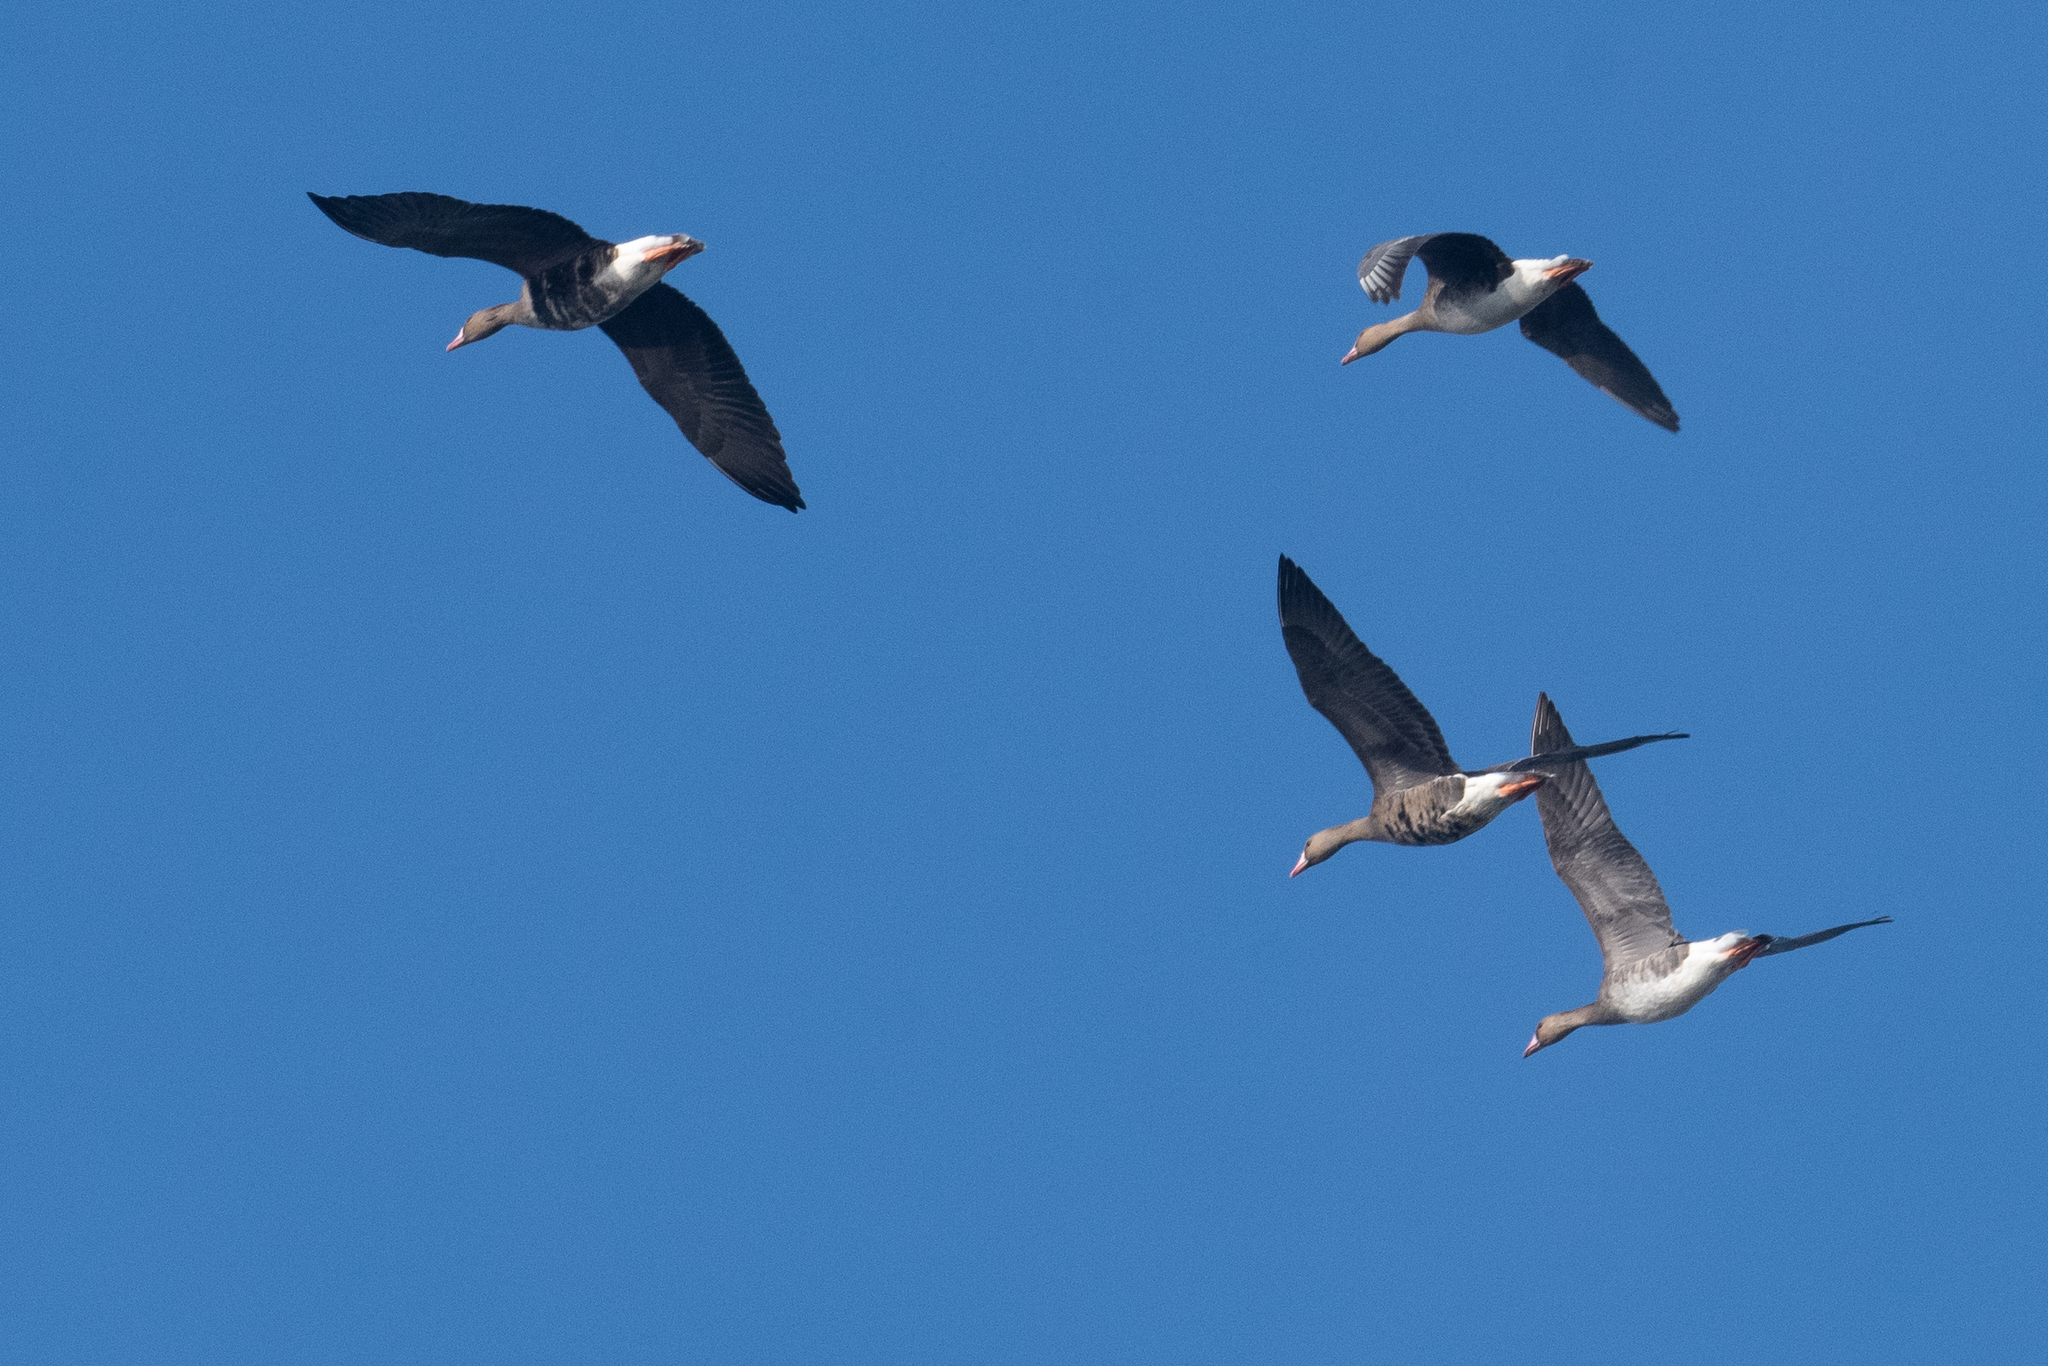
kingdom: Animalia
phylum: Chordata
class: Aves
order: Anseriformes
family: Anatidae
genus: Anser
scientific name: Anser albifrons
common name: Greater white-fronted goose
